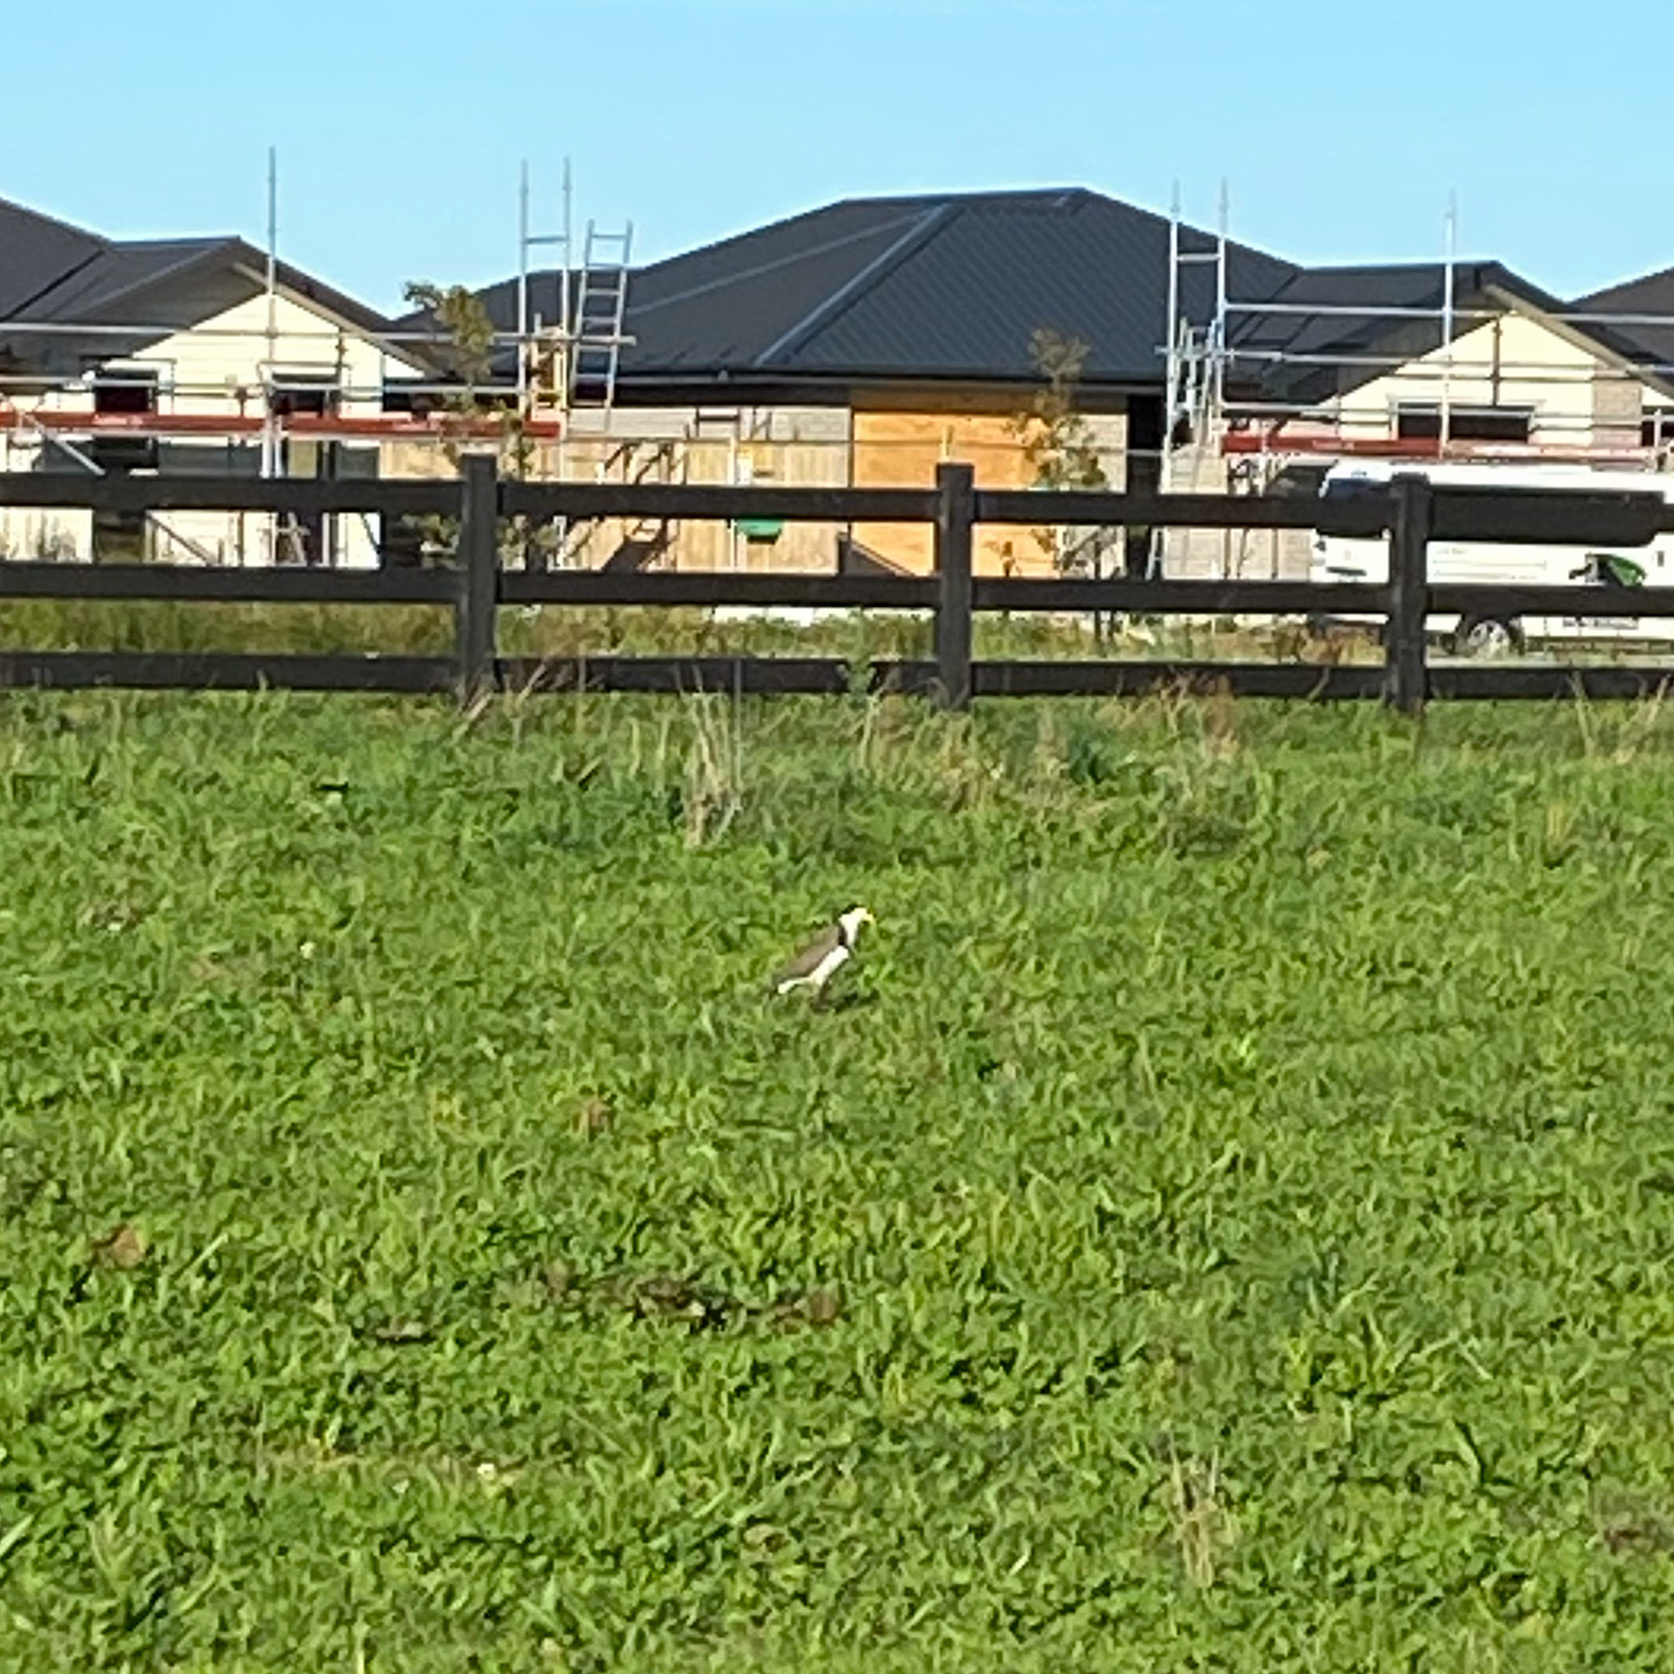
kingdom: Animalia
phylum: Chordata
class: Aves
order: Charadriiformes
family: Charadriidae
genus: Vanellus
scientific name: Vanellus miles
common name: Masked lapwing
